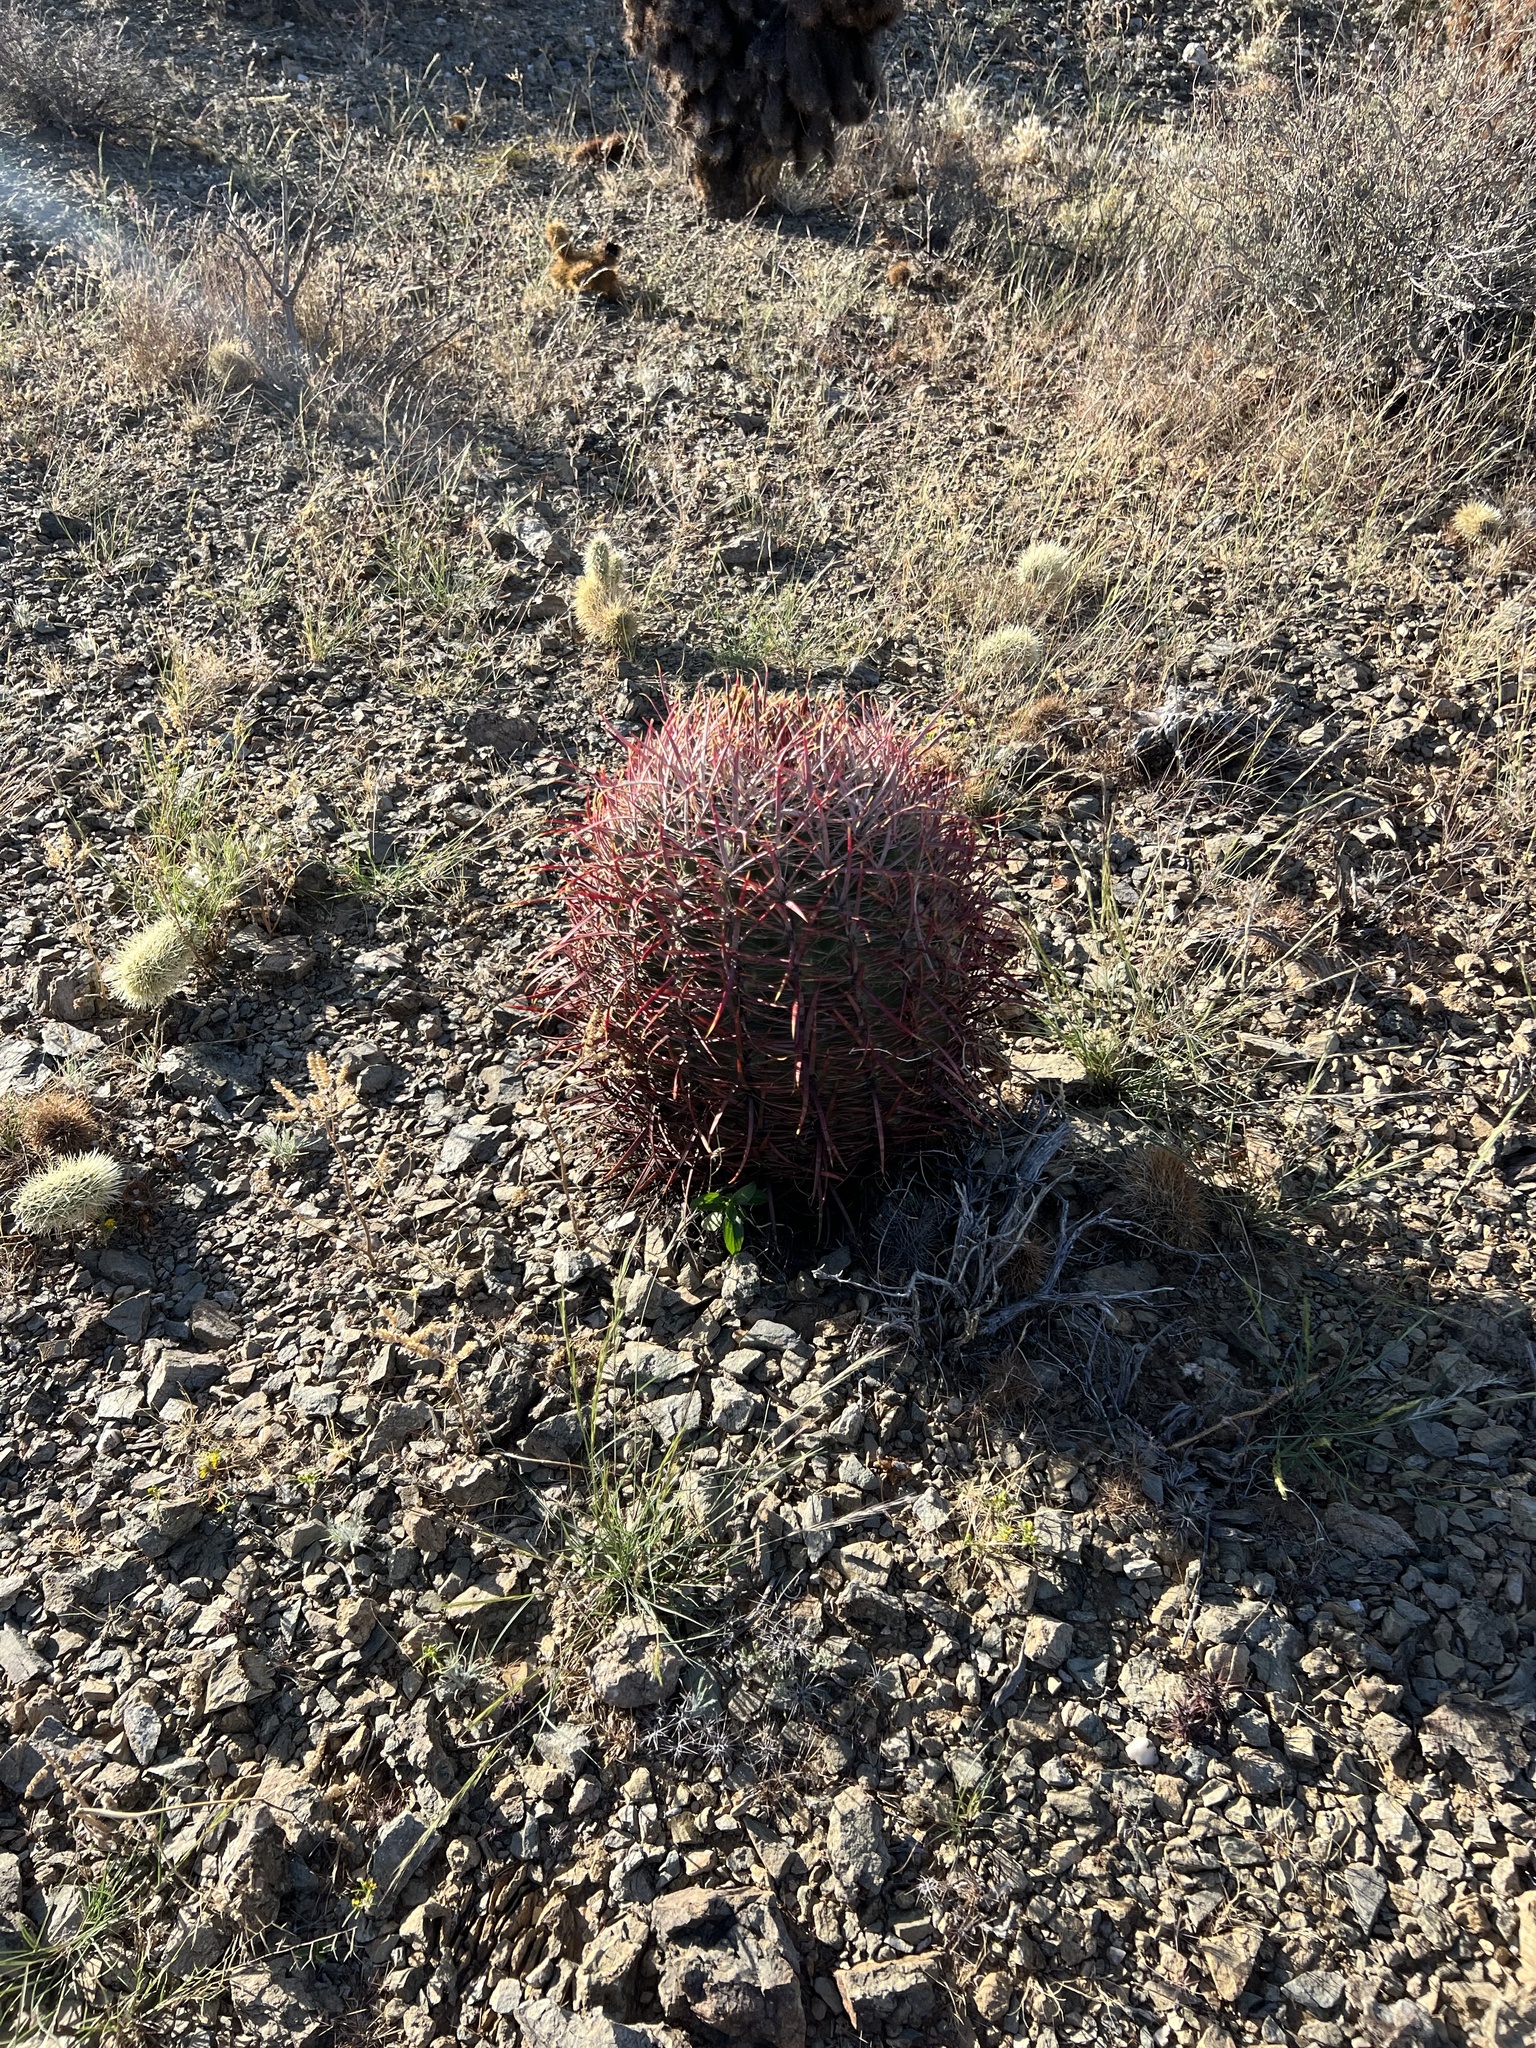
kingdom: Plantae
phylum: Tracheophyta
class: Magnoliopsida
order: Caryophyllales
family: Cactaceae
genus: Ferocactus
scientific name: Ferocactus cylindraceus
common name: California barrel cactus
